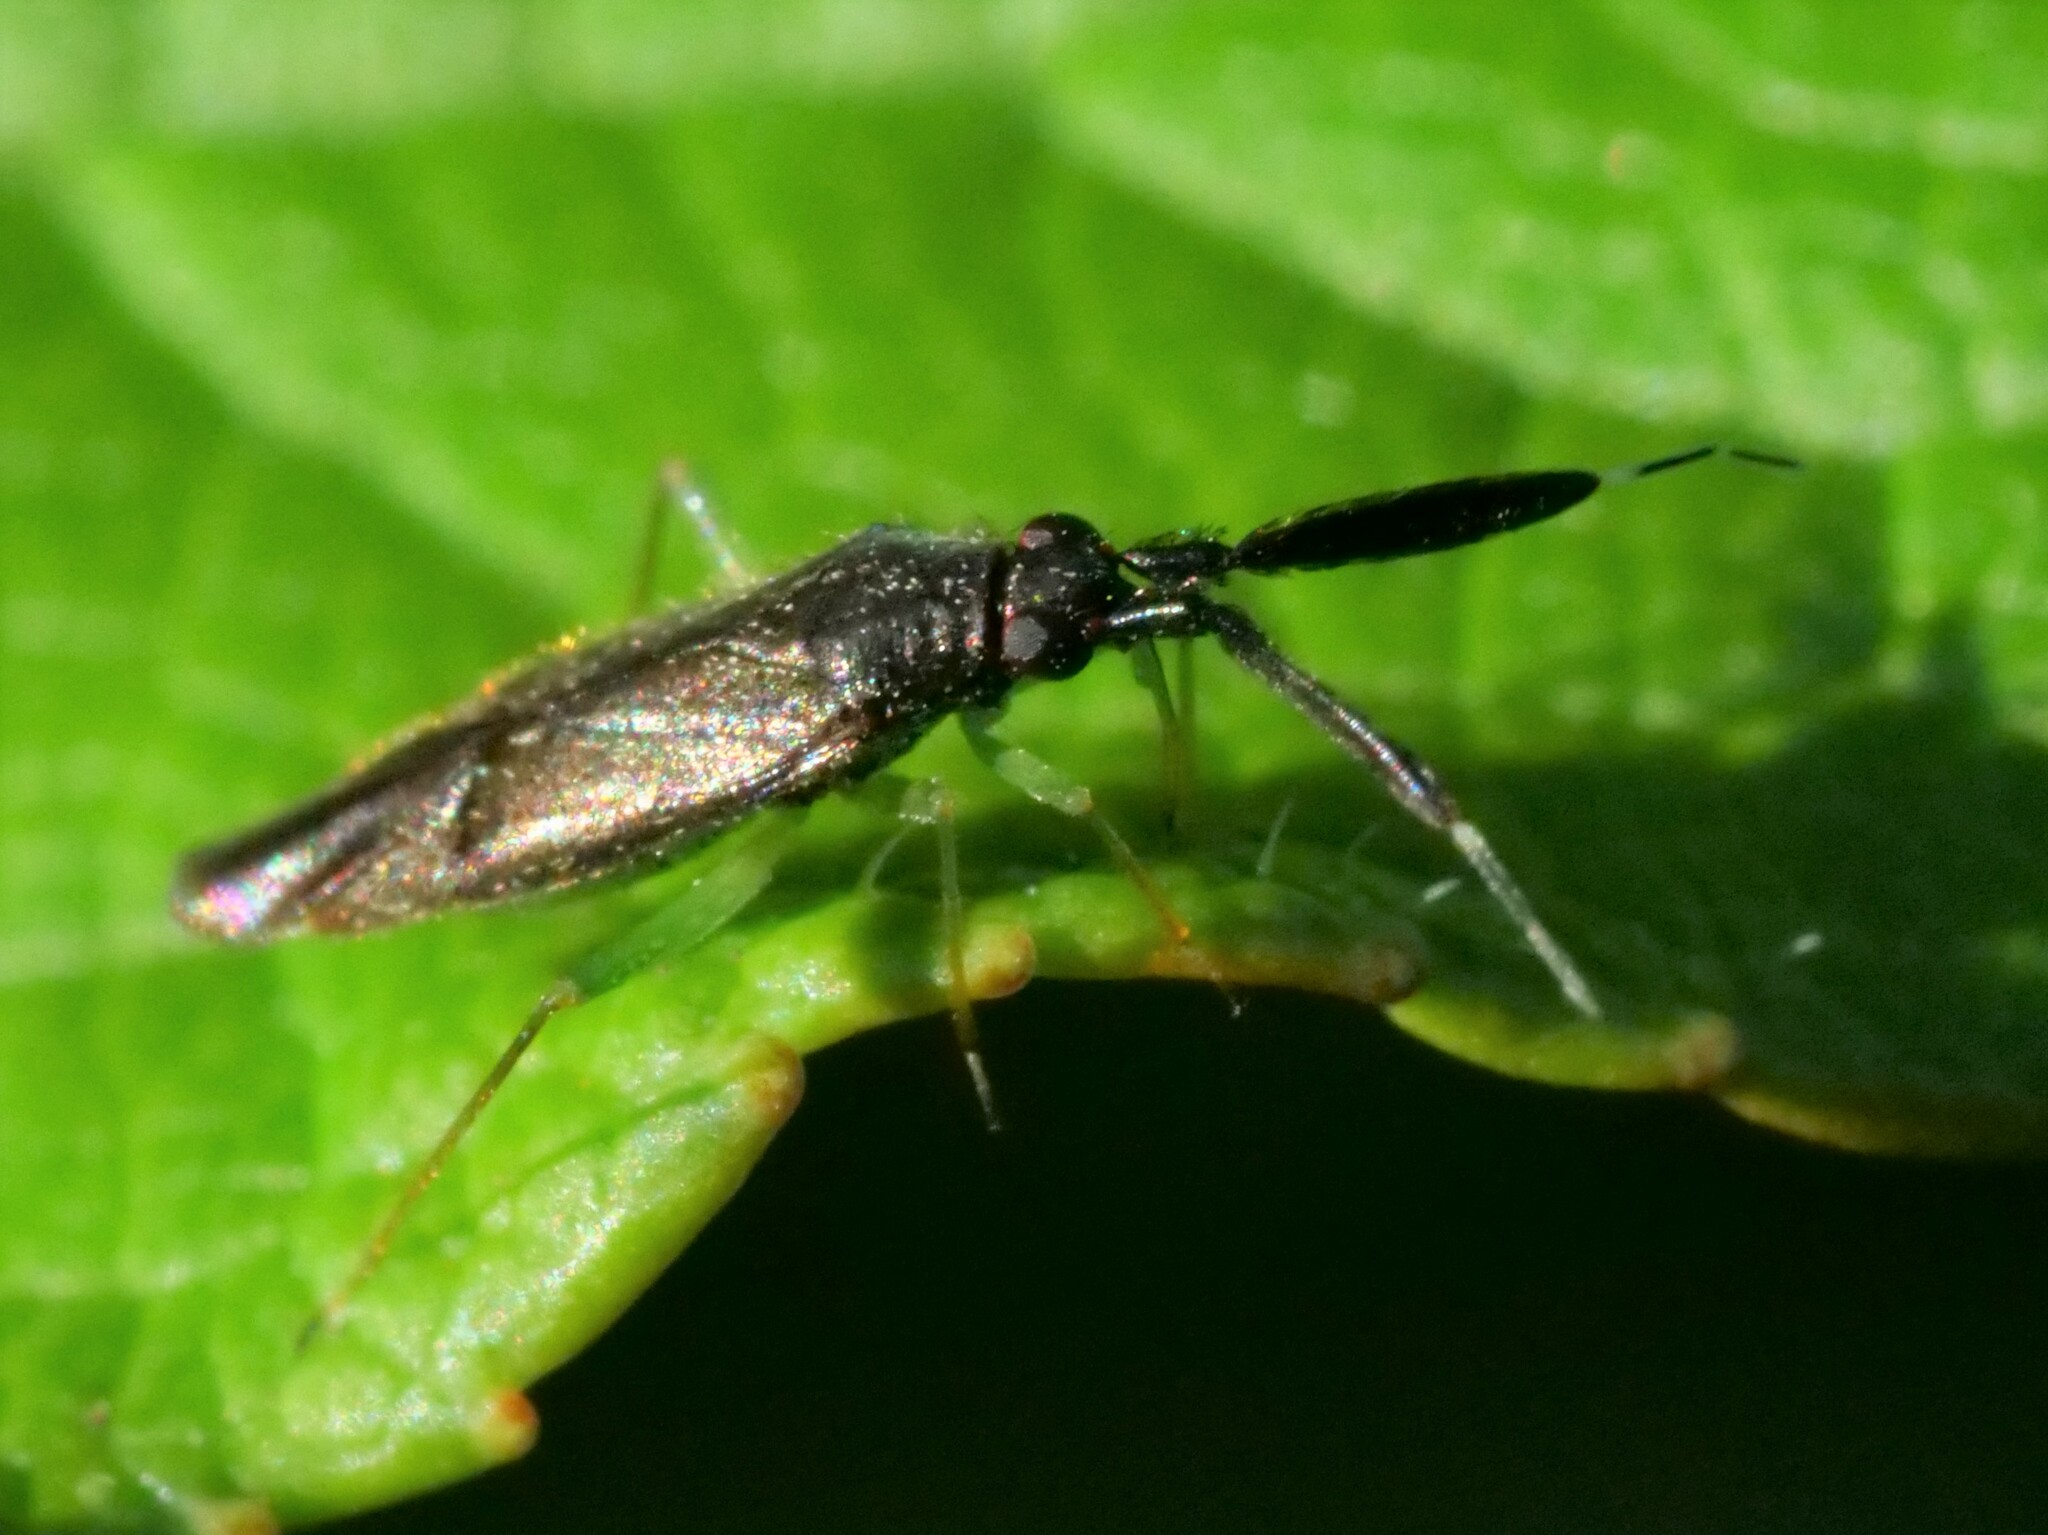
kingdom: Animalia
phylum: Arthropoda
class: Insecta
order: Hemiptera
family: Miridae
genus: Heterotoma
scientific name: Heterotoma planicornis
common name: Plant bug
